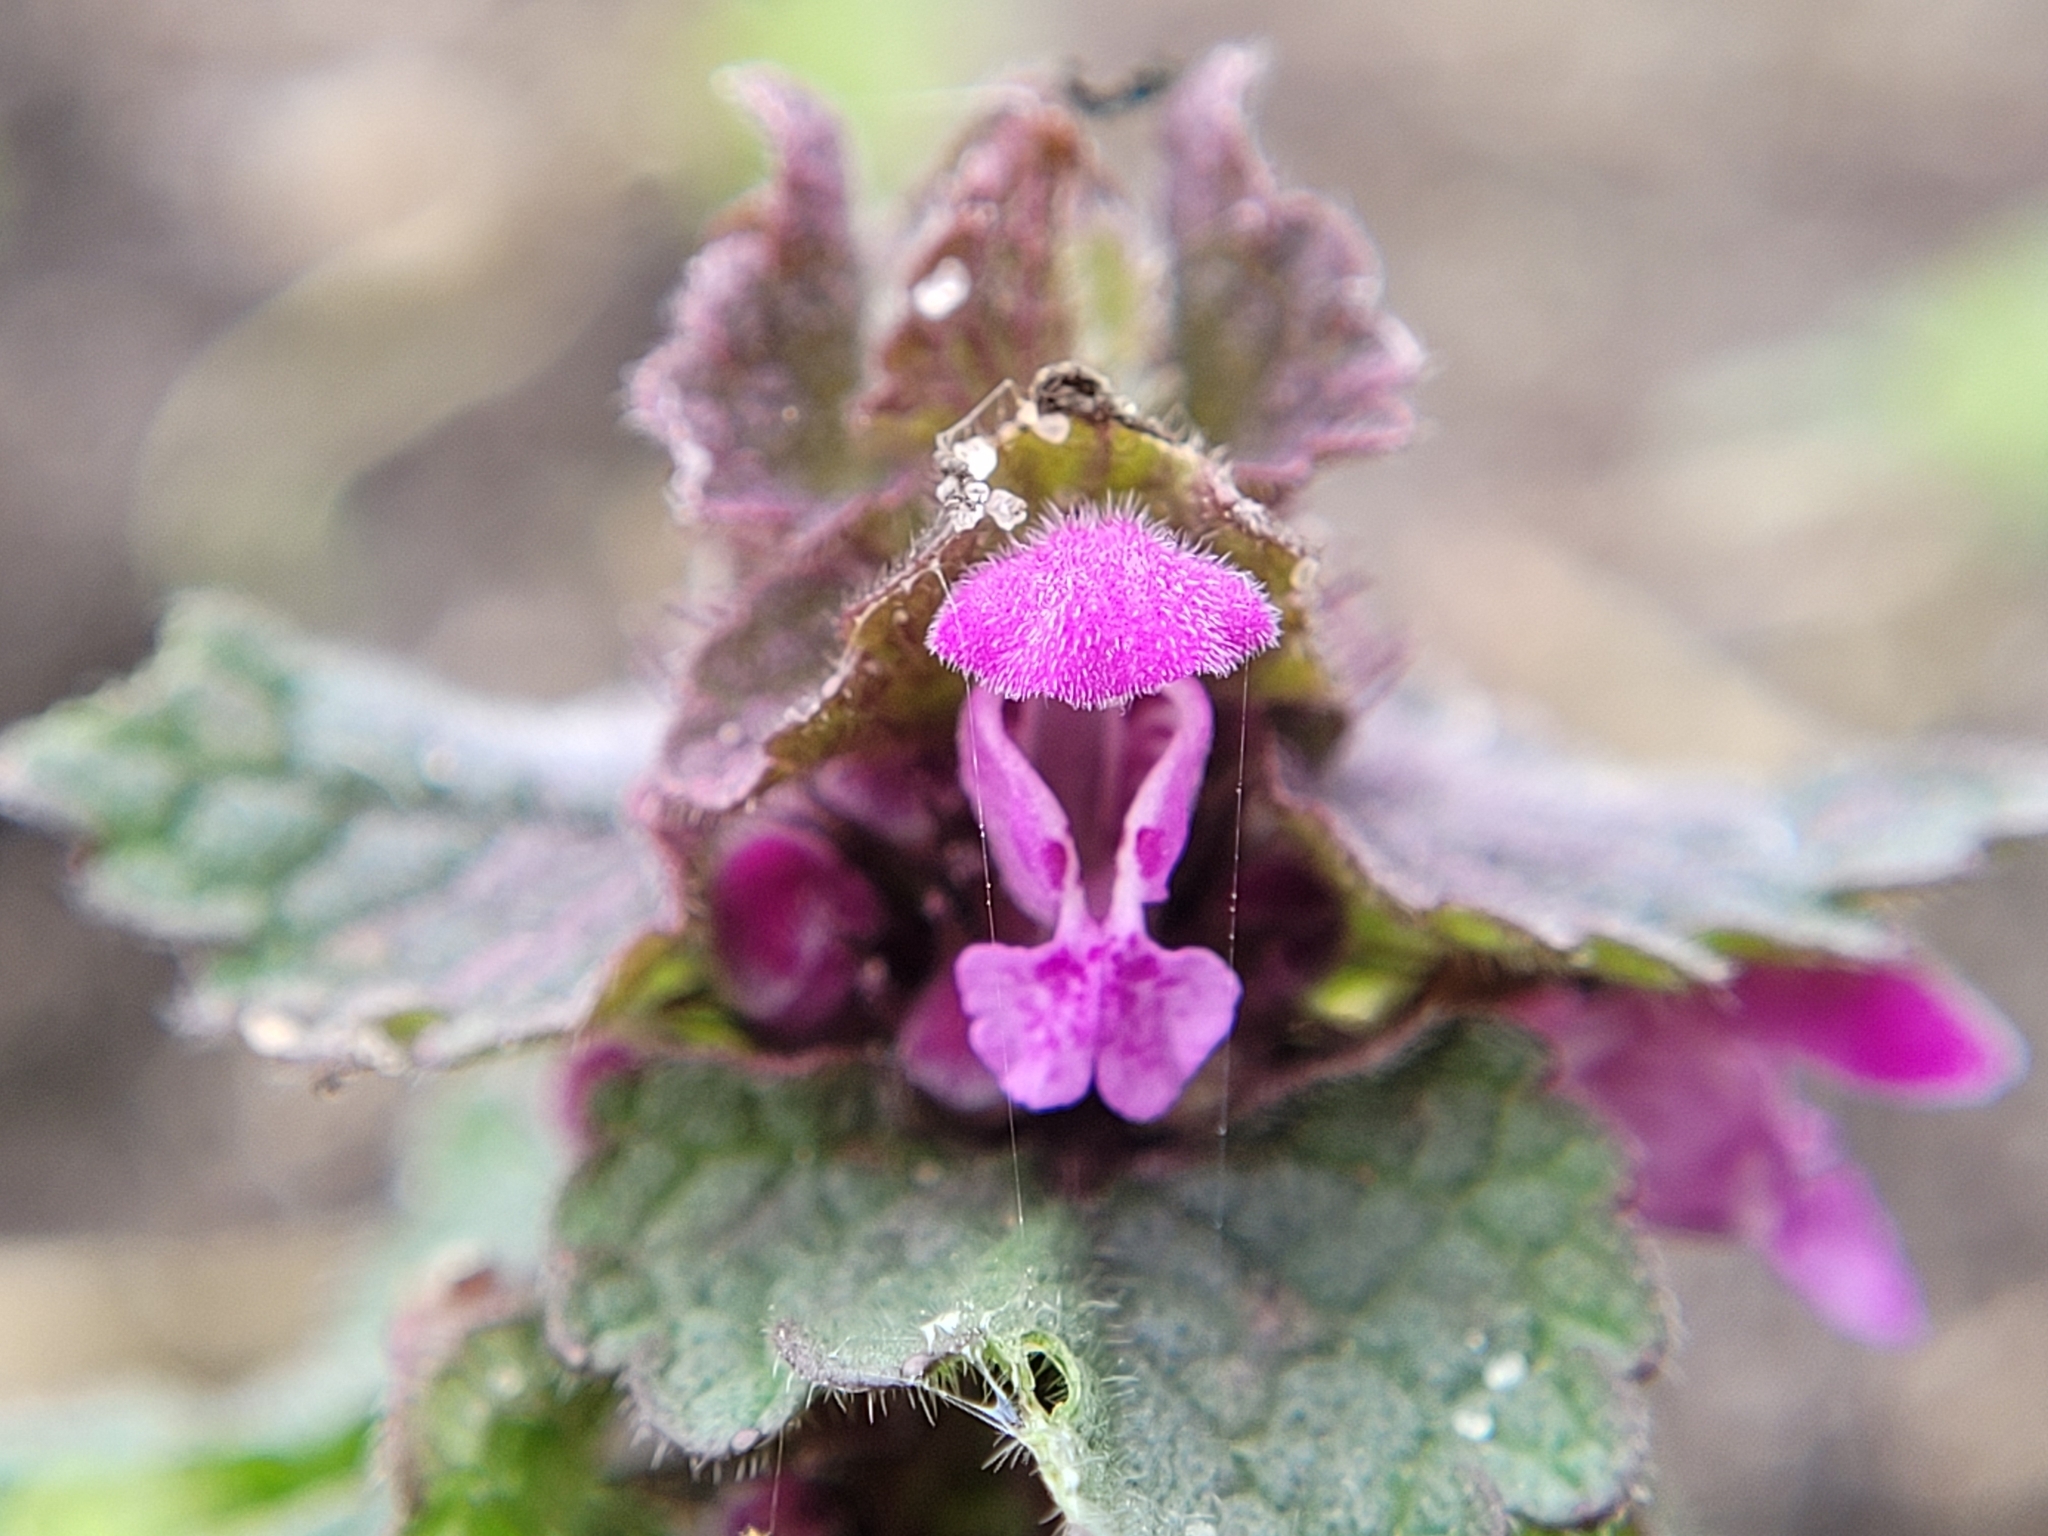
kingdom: Plantae
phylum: Tracheophyta
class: Magnoliopsida
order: Lamiales
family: Lamiaceae
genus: Lamium
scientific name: Lamium purpureum
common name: Red dead-nettle
